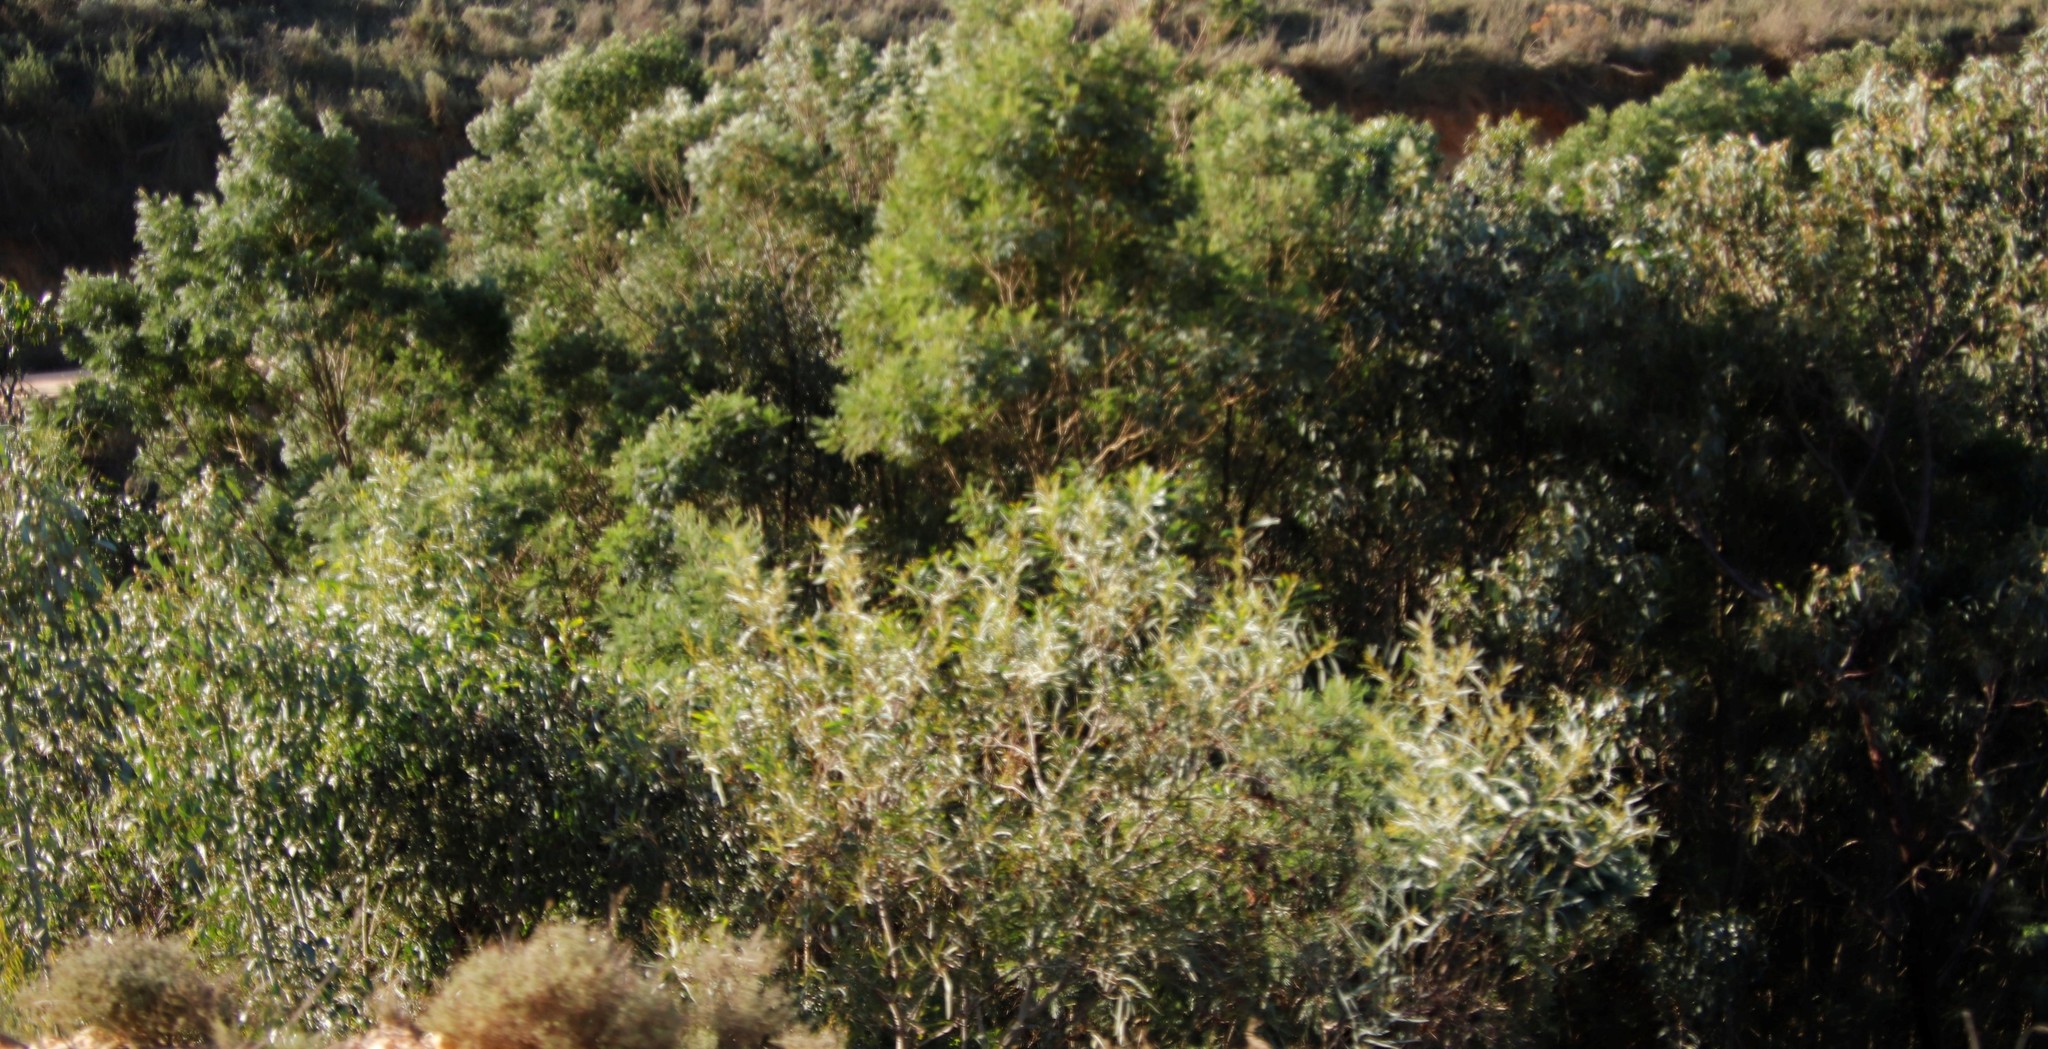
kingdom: Plantae
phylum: Tracheophyta
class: Magnoliopsida
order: Fabales
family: Fabaceae
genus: Acacia
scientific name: Acacia saligna
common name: Orange wattle
